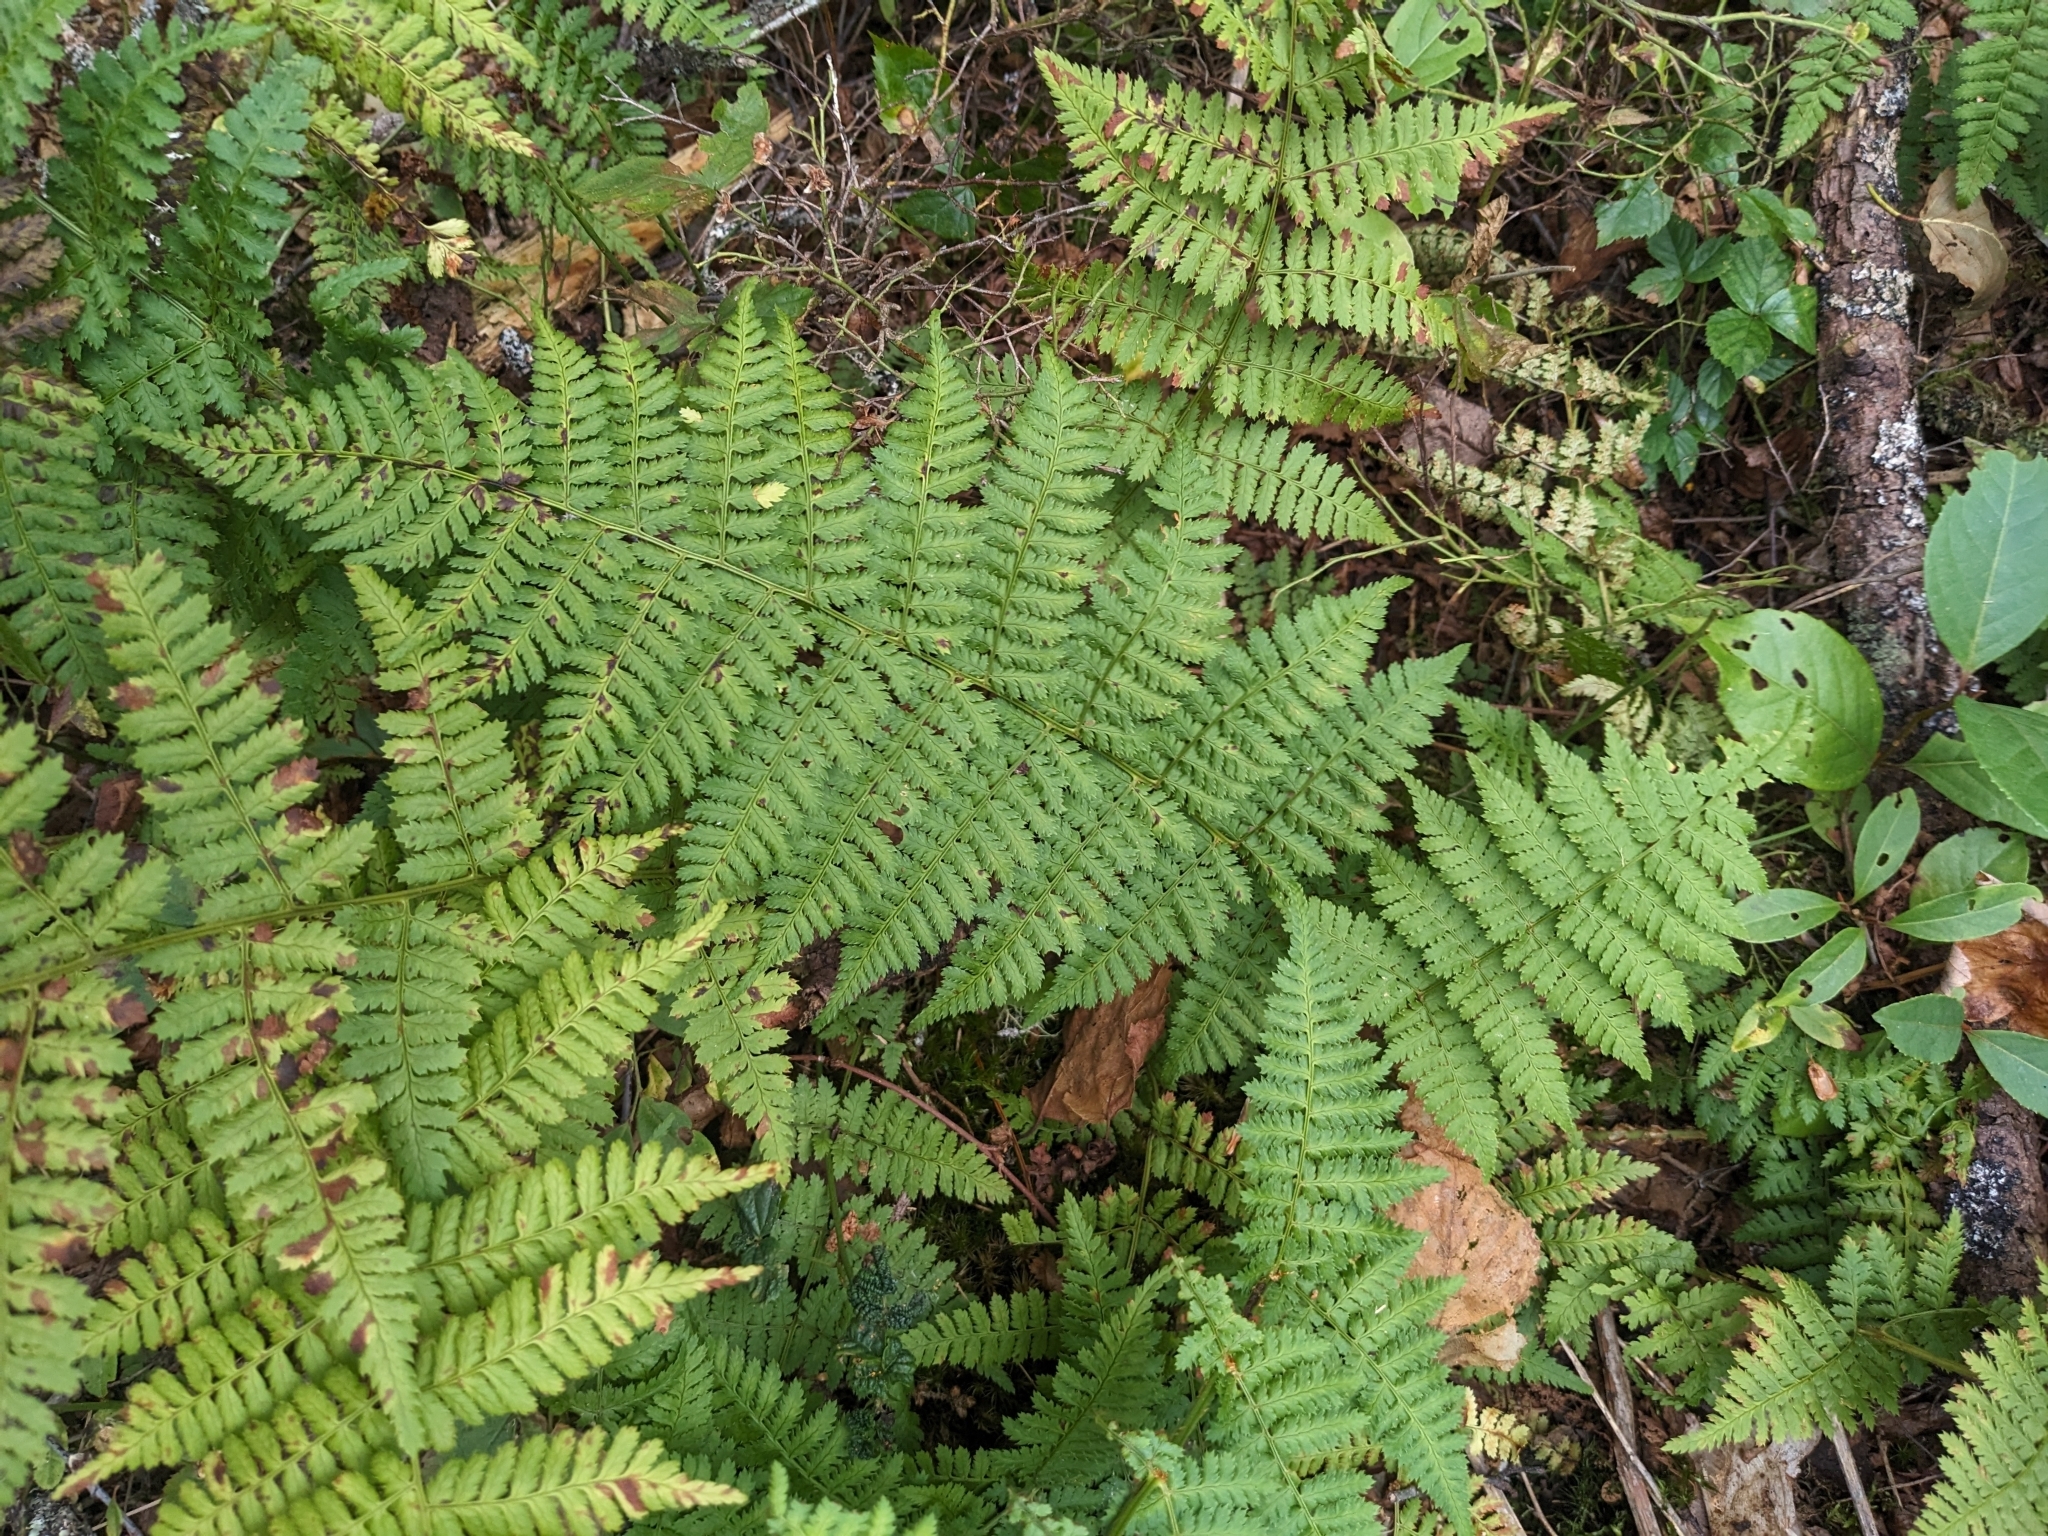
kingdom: Plantae
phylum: Tracheophyta
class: Polypodiopsida
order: Polypodiales
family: Dryopteridaceae
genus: Dryopteris
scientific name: Dryopteris intermedia
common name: Evergreen wood fern
